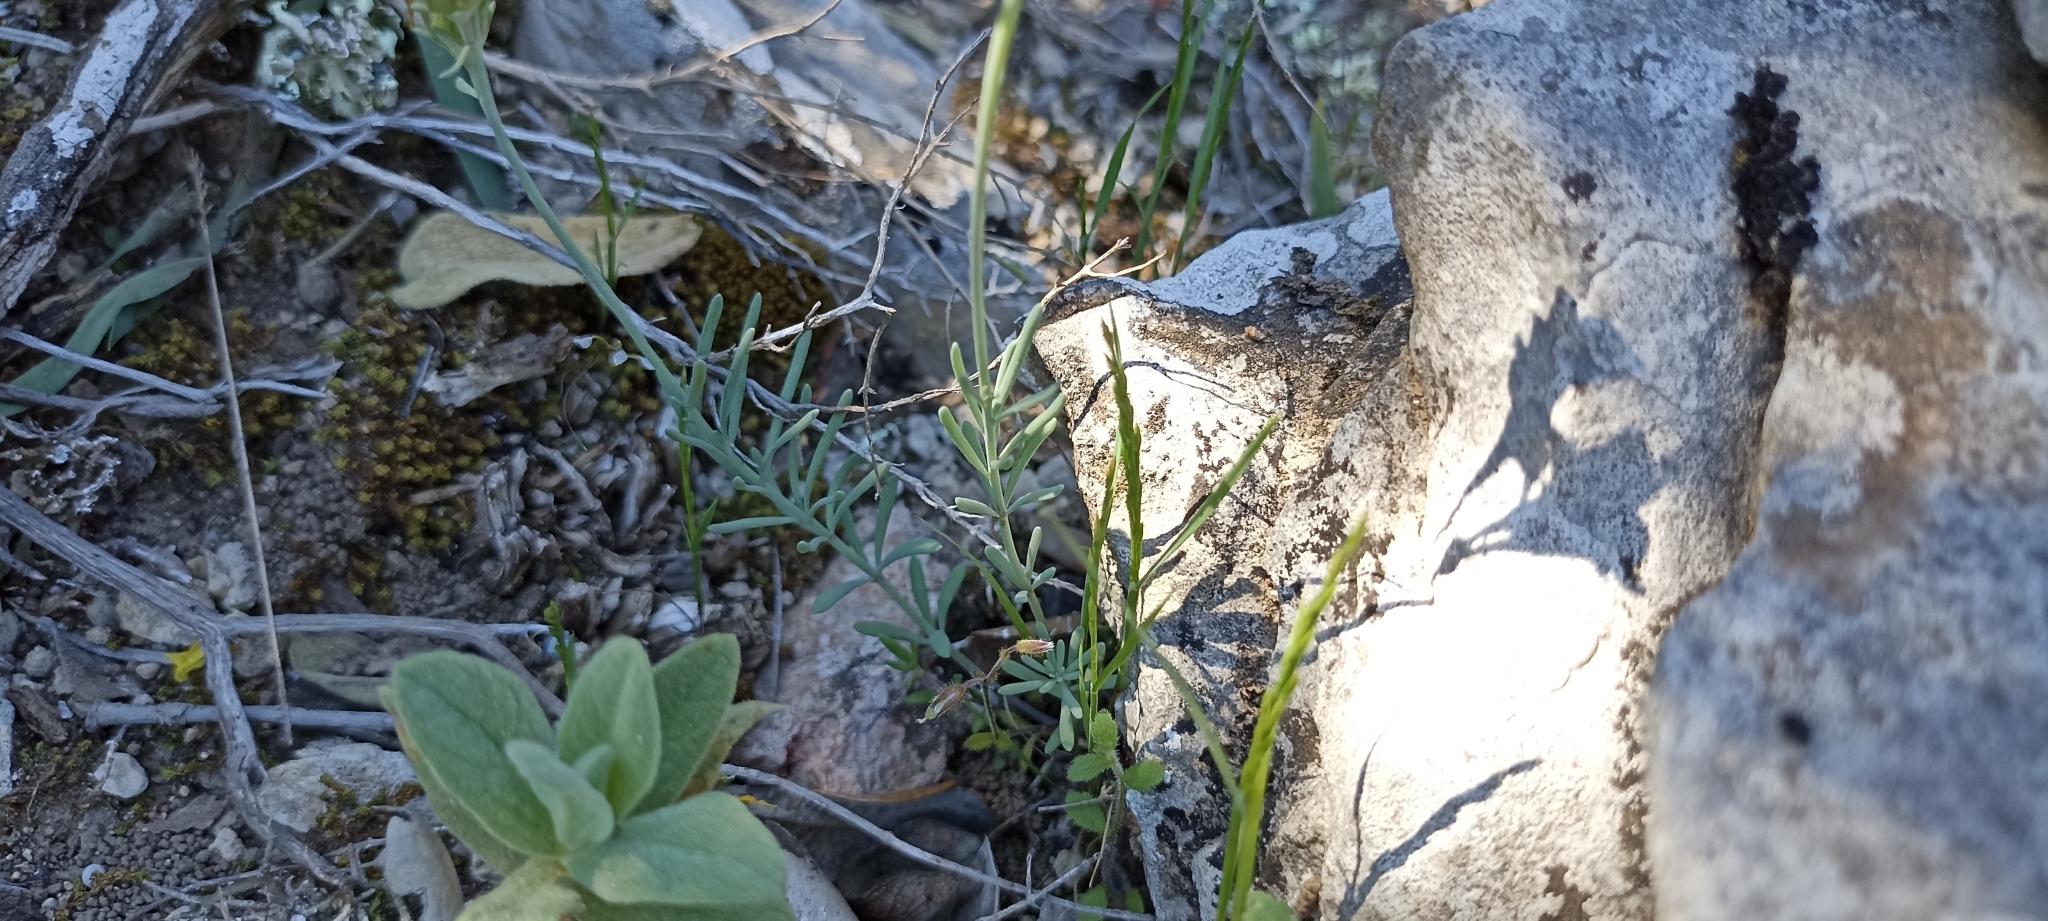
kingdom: Plantae
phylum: Tracheophyta
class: Magnoliopsida
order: Lamiales
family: Plantaginaceae
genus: Linaria
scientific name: Linaria supina
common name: Prostrate toadflax
